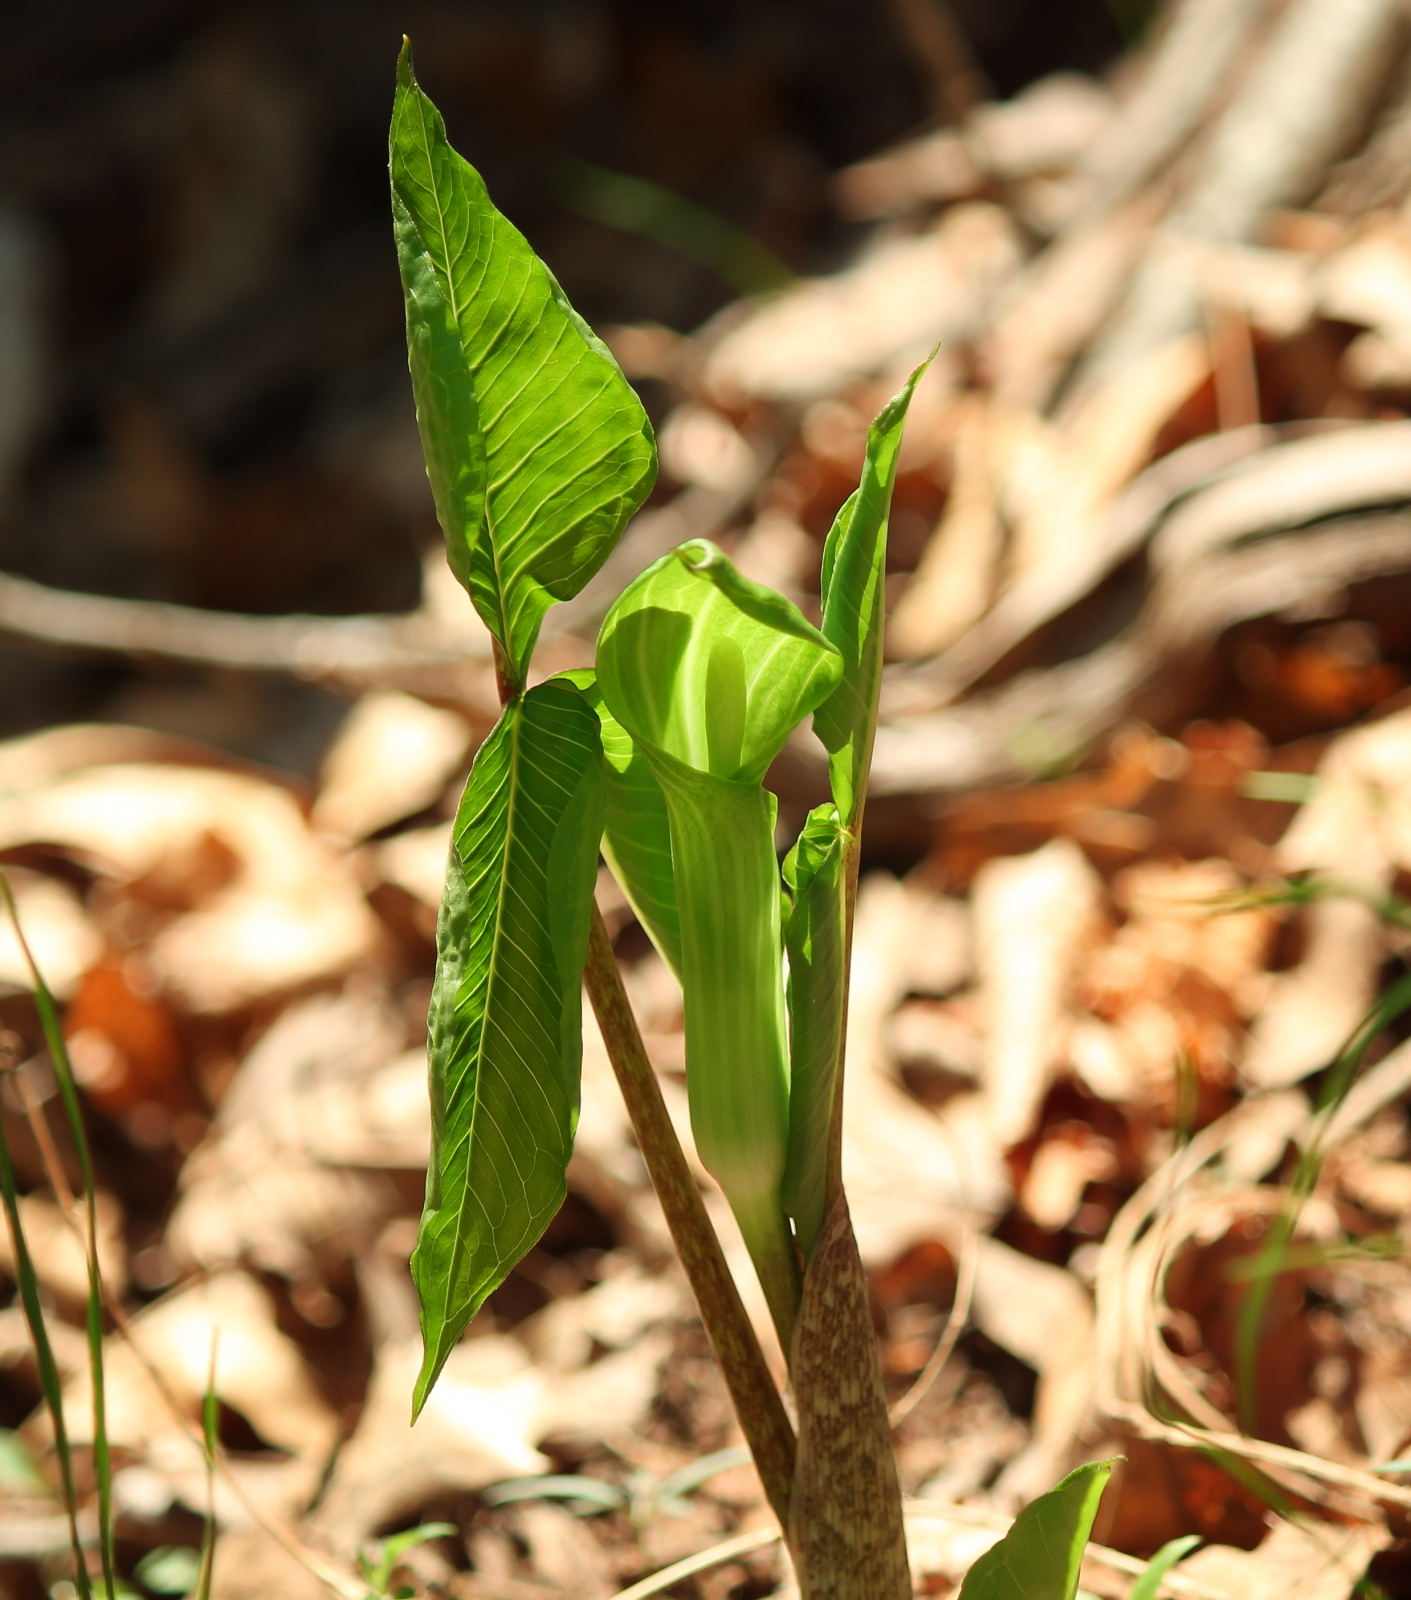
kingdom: Plantae
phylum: Tracheophyta
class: Liliopsida
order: Alismatales
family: Araceae
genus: Arisaema
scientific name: Arisaema triphyllum
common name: Jack-in-the-pulpit
